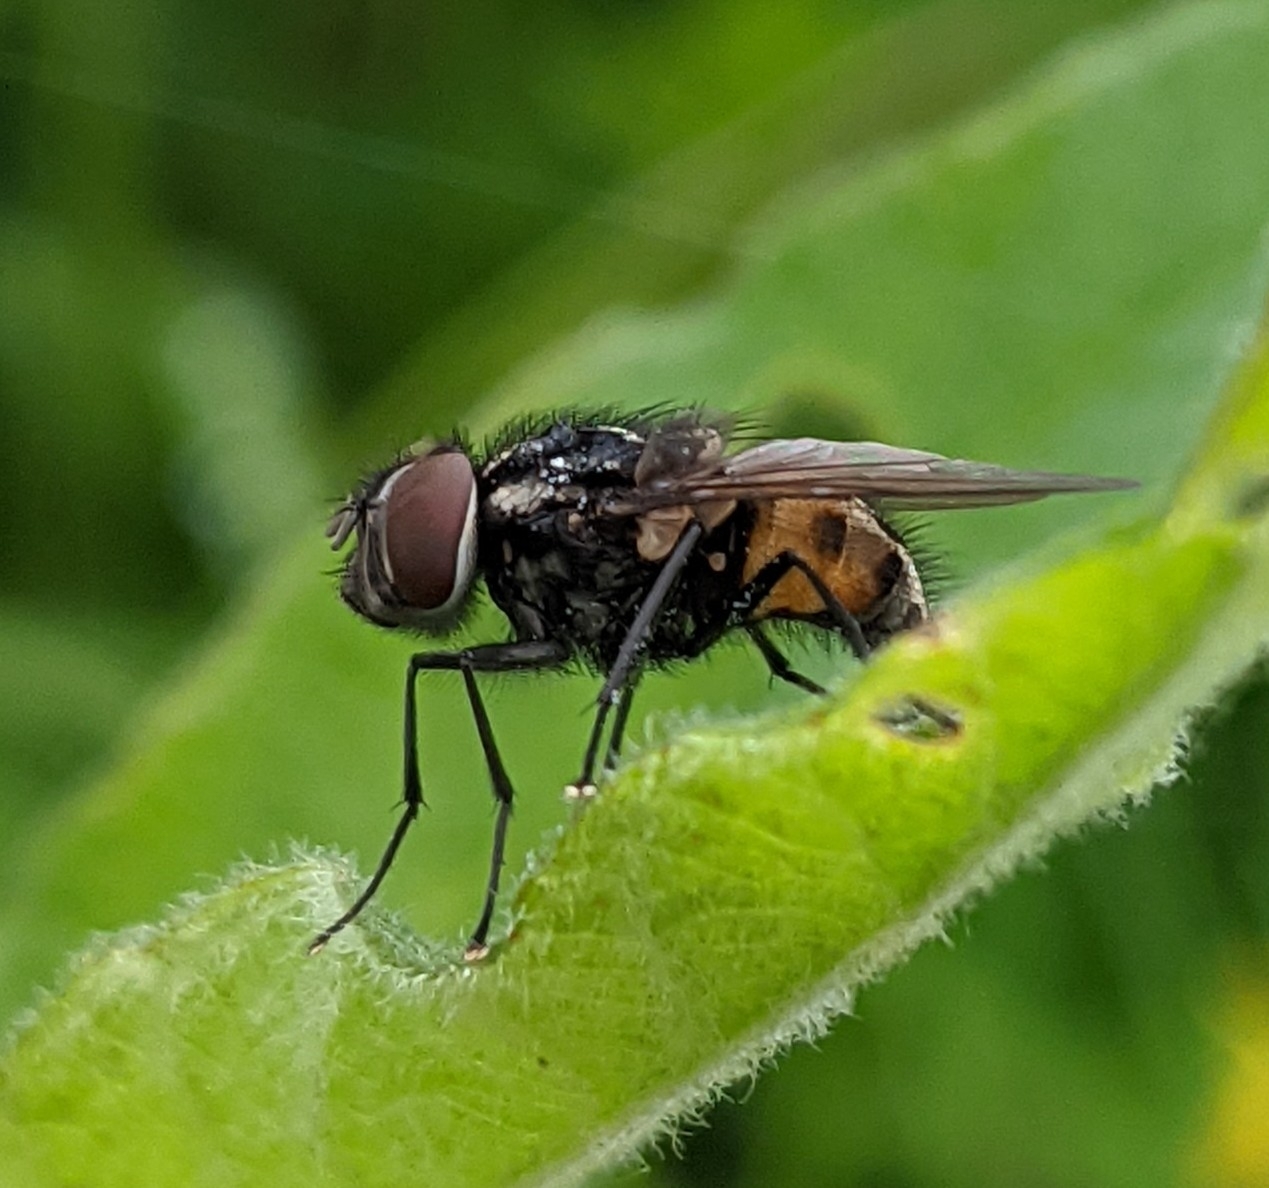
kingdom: Animalia
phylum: Arthropoda
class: Insecta
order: Diptera
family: Muscidae
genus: Graphomya
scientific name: Graphomya maculata
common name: Muscid fly
